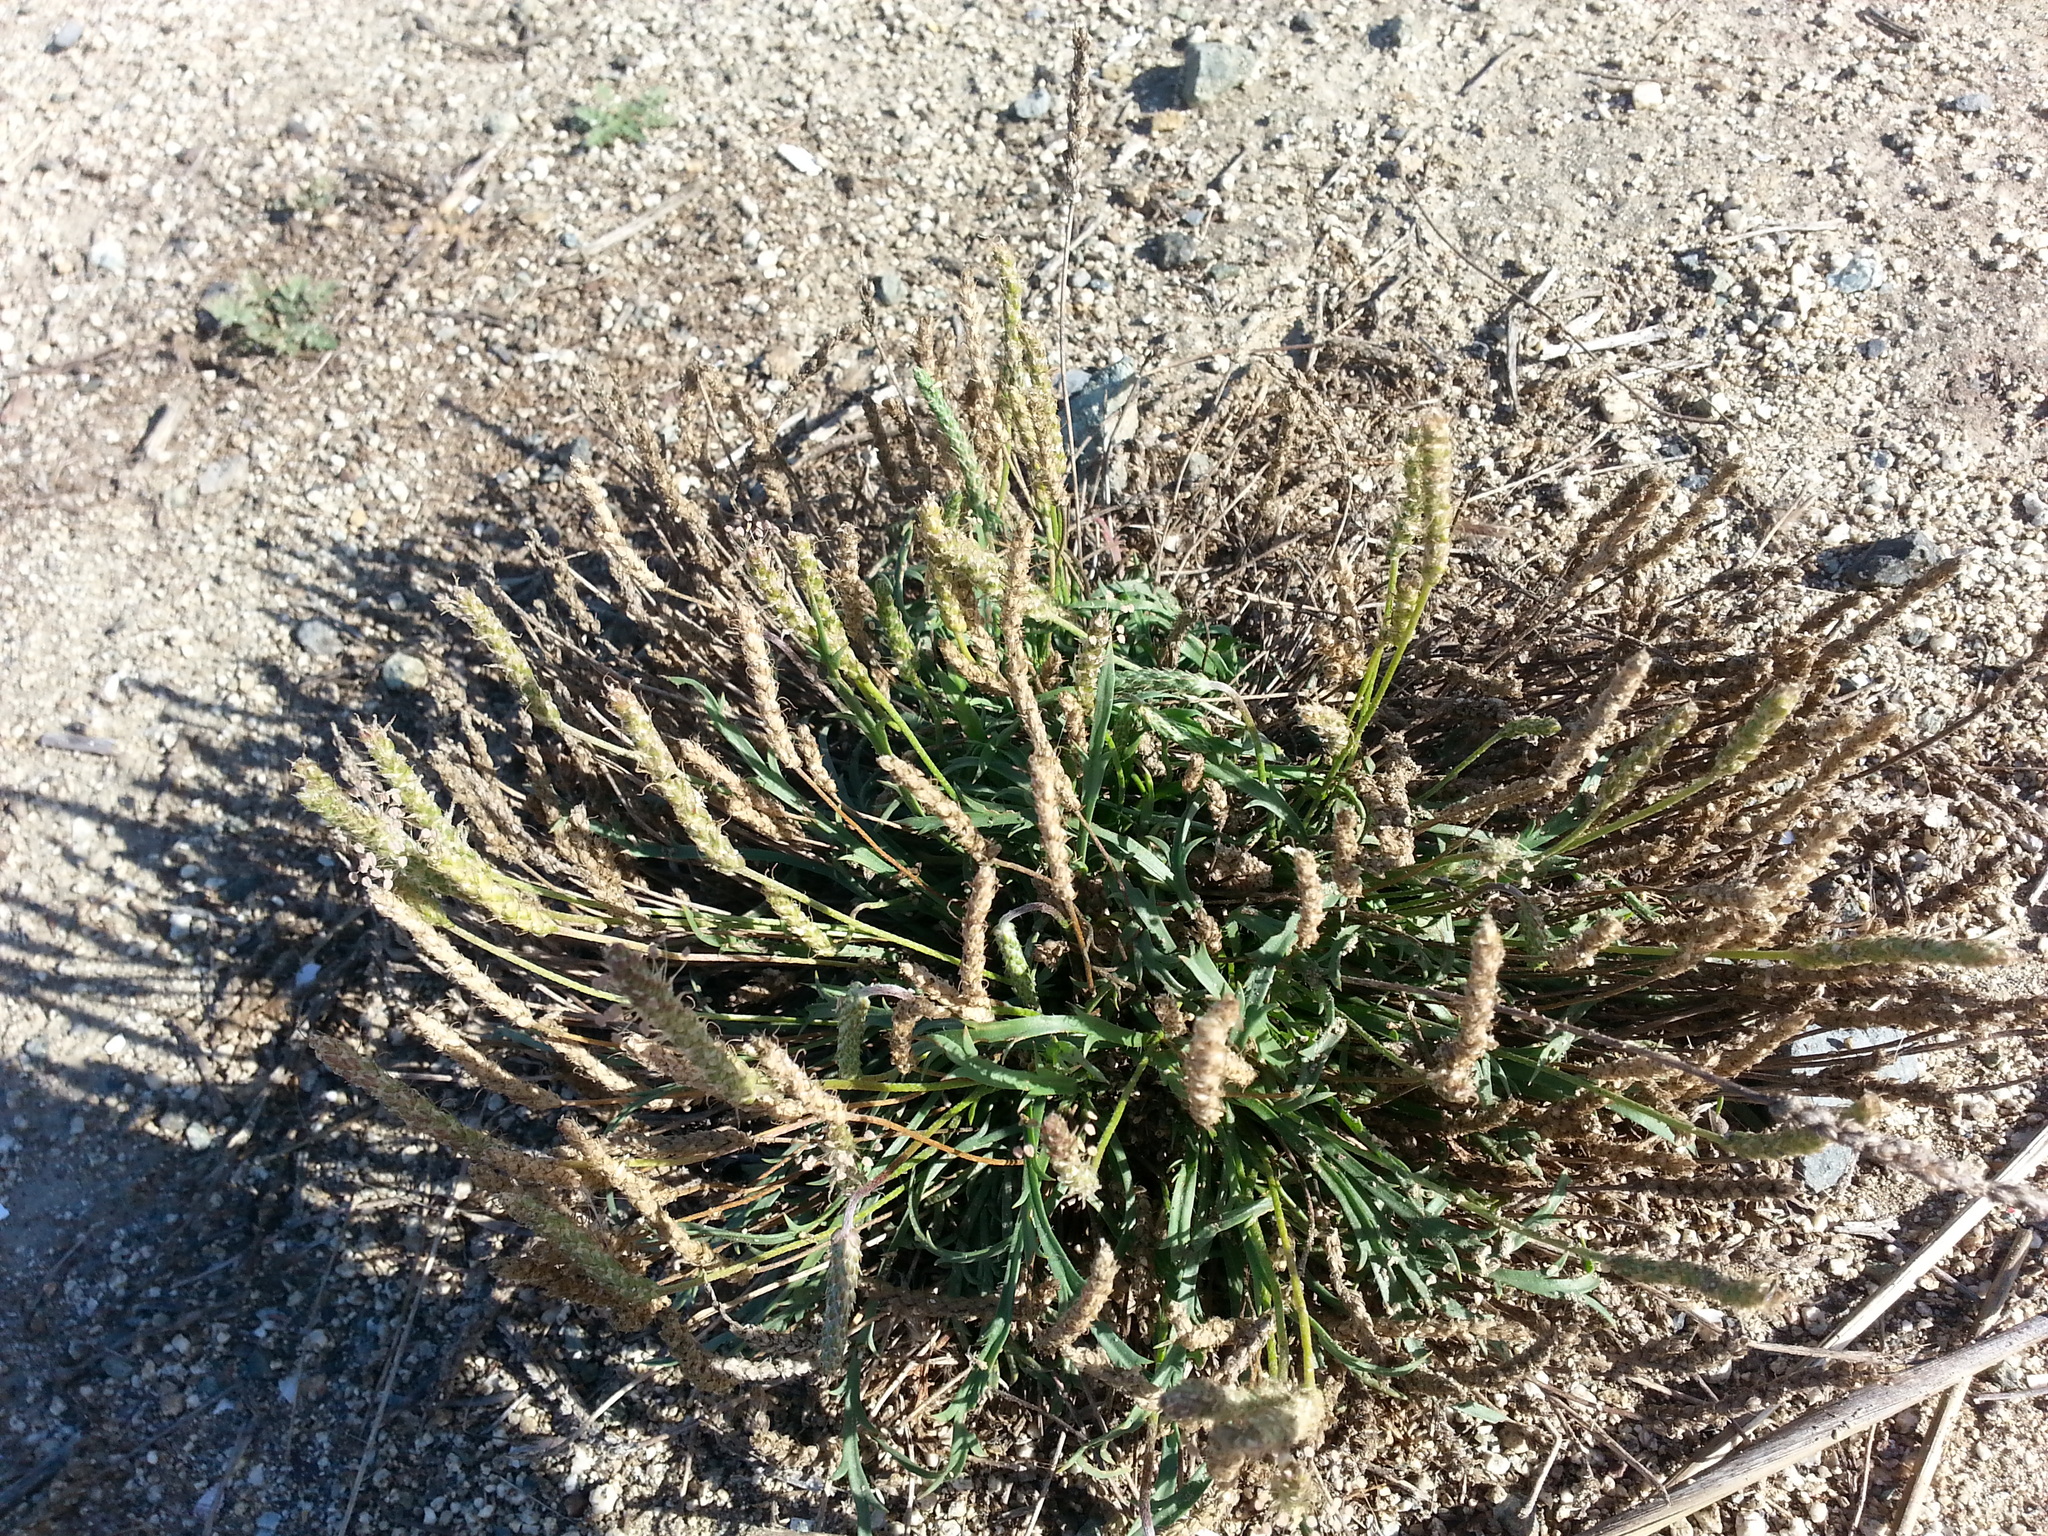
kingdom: Plantae
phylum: Tracheophyta
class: Magnoliopsida
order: Lamiales
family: Plantaginaceae
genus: Plantago
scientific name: Plantago coronopus
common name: Buck's-horn plantain
